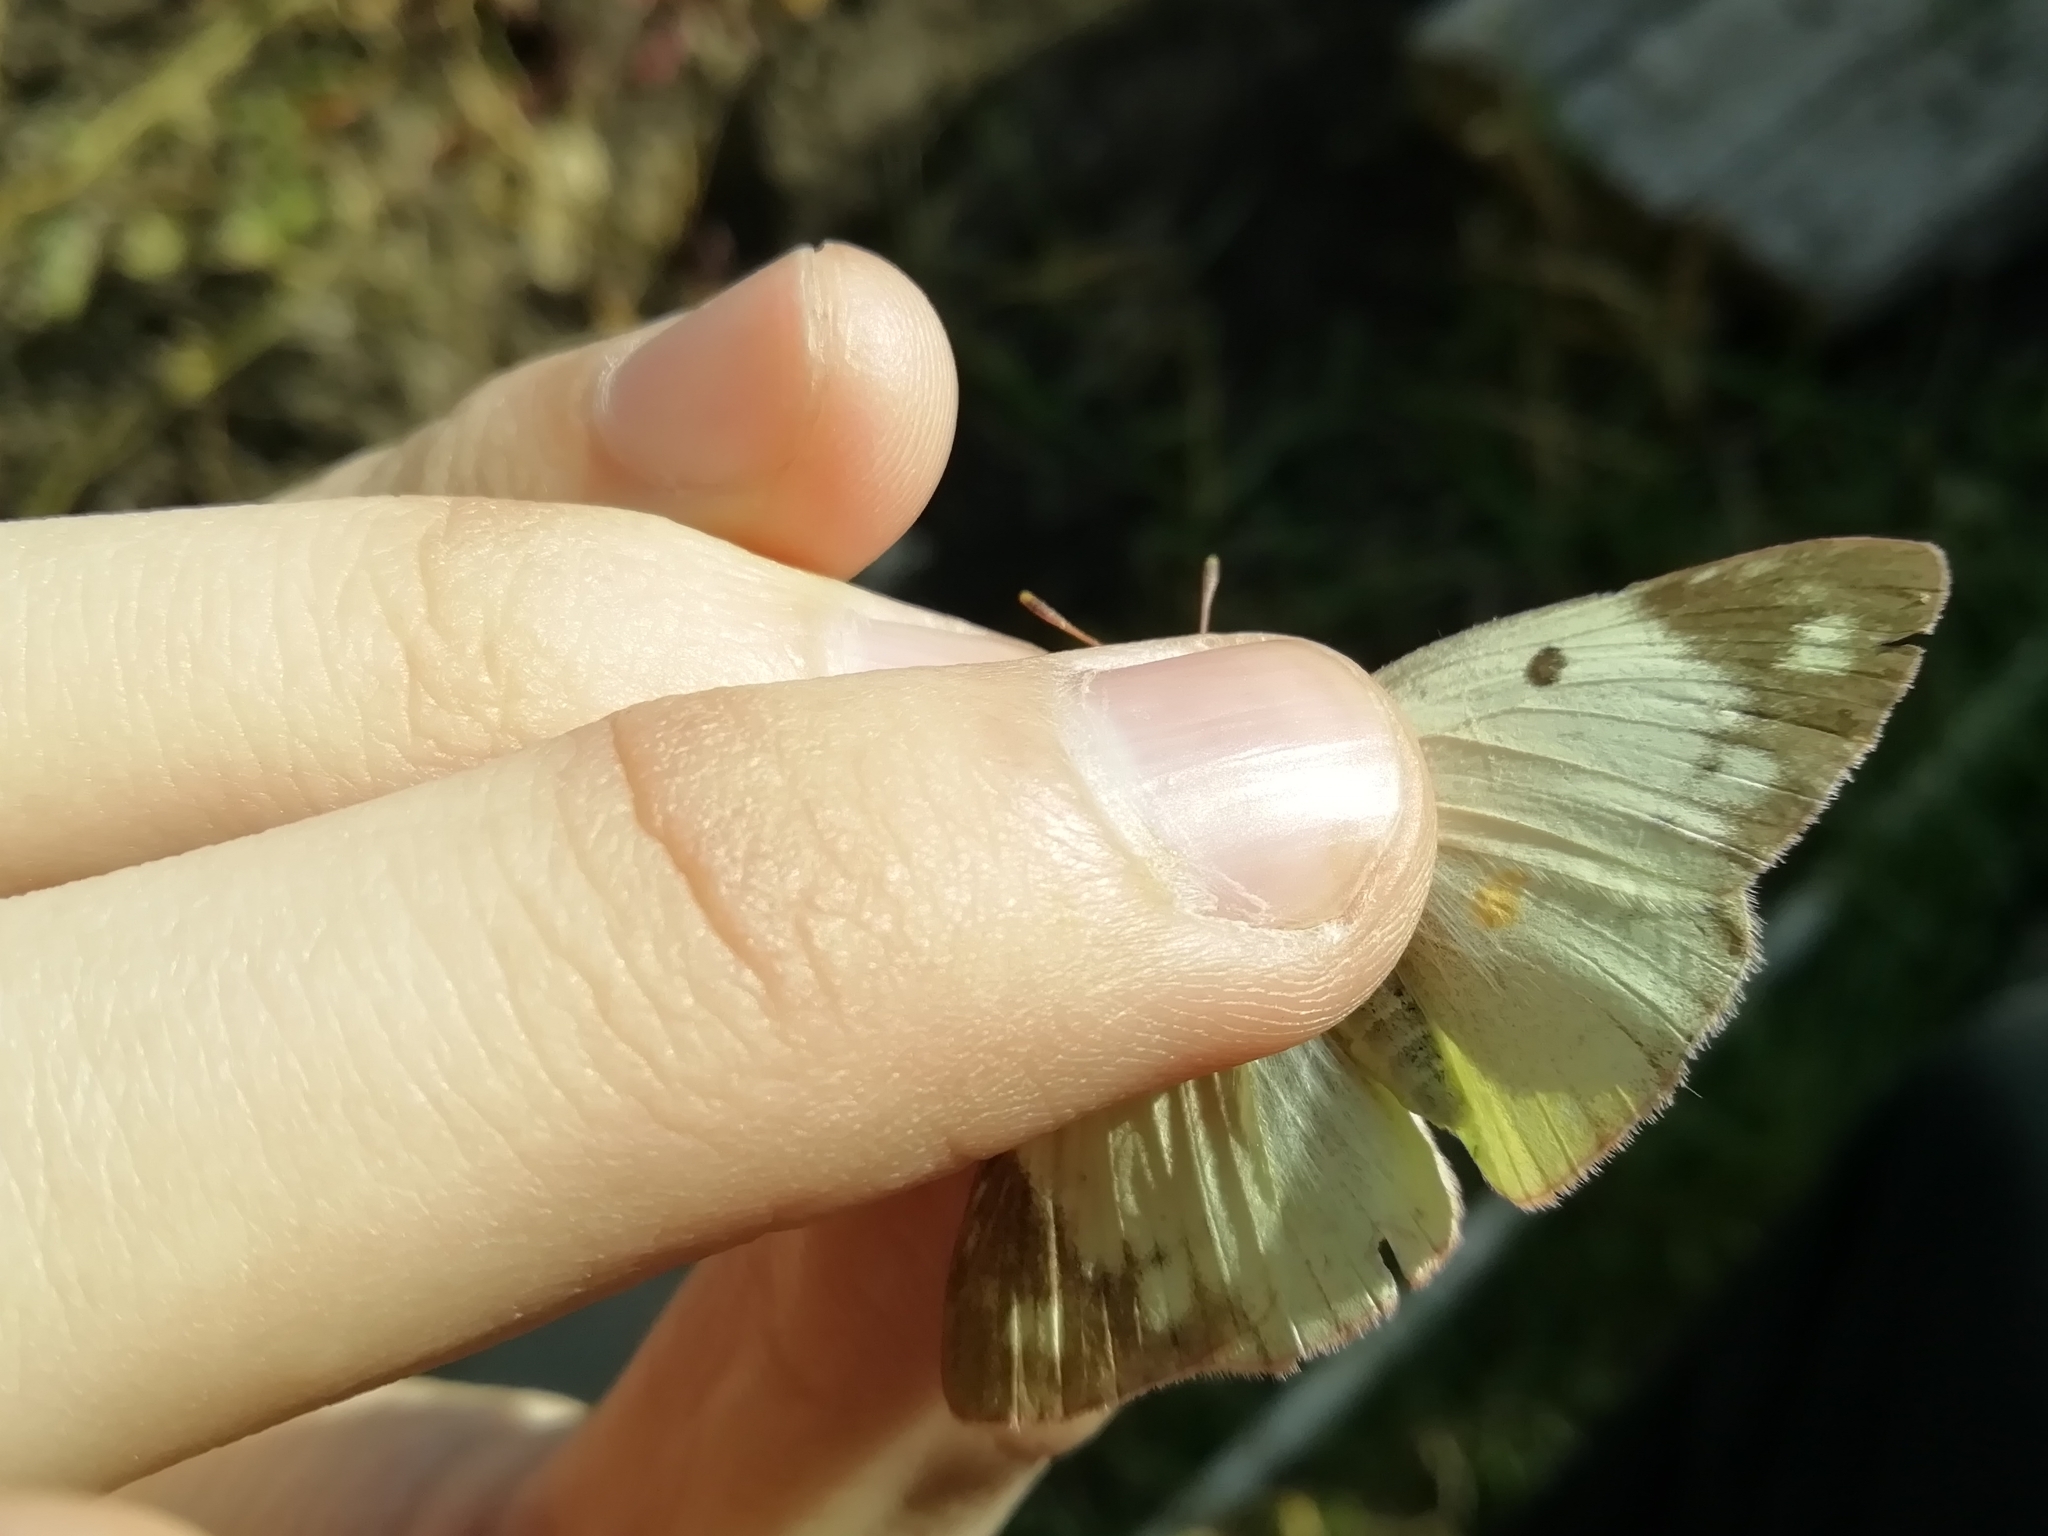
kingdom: Animalia
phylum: Arthropoda
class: Insecta
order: Lepidoptera
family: Pieridae
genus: Colias
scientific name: Colias hyale
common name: Pale clouded yellow
